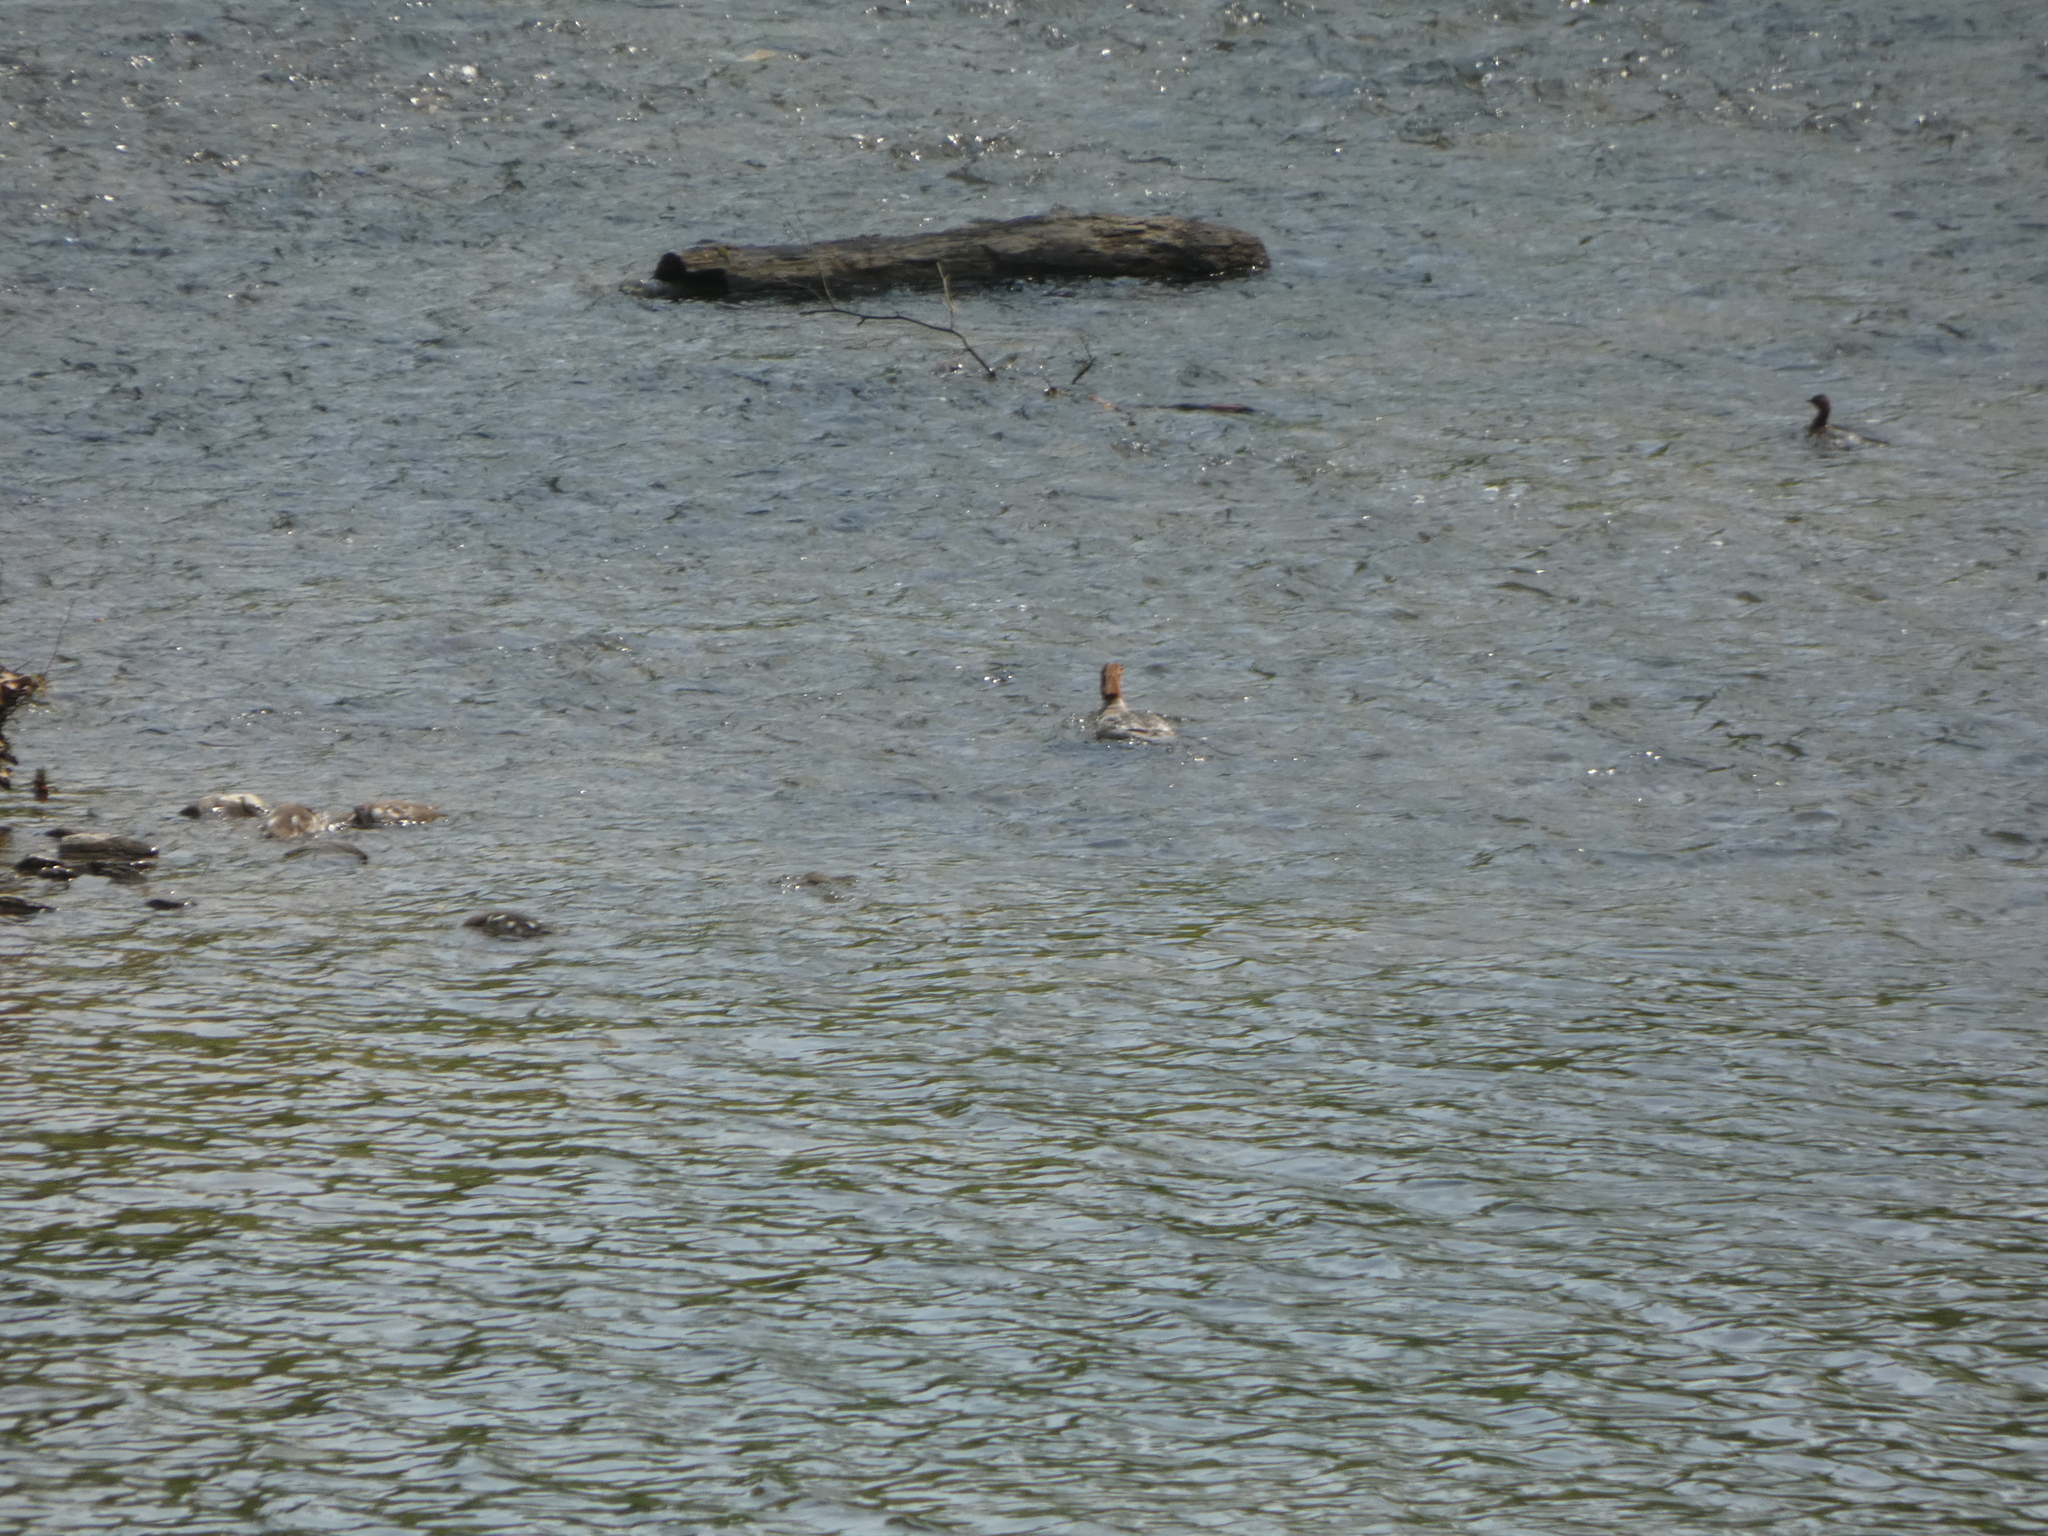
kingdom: Animalia
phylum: Chordata
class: Aves
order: Anseriformes
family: Anatidae
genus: Mergus
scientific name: Mergus merganser
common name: Common merganser
